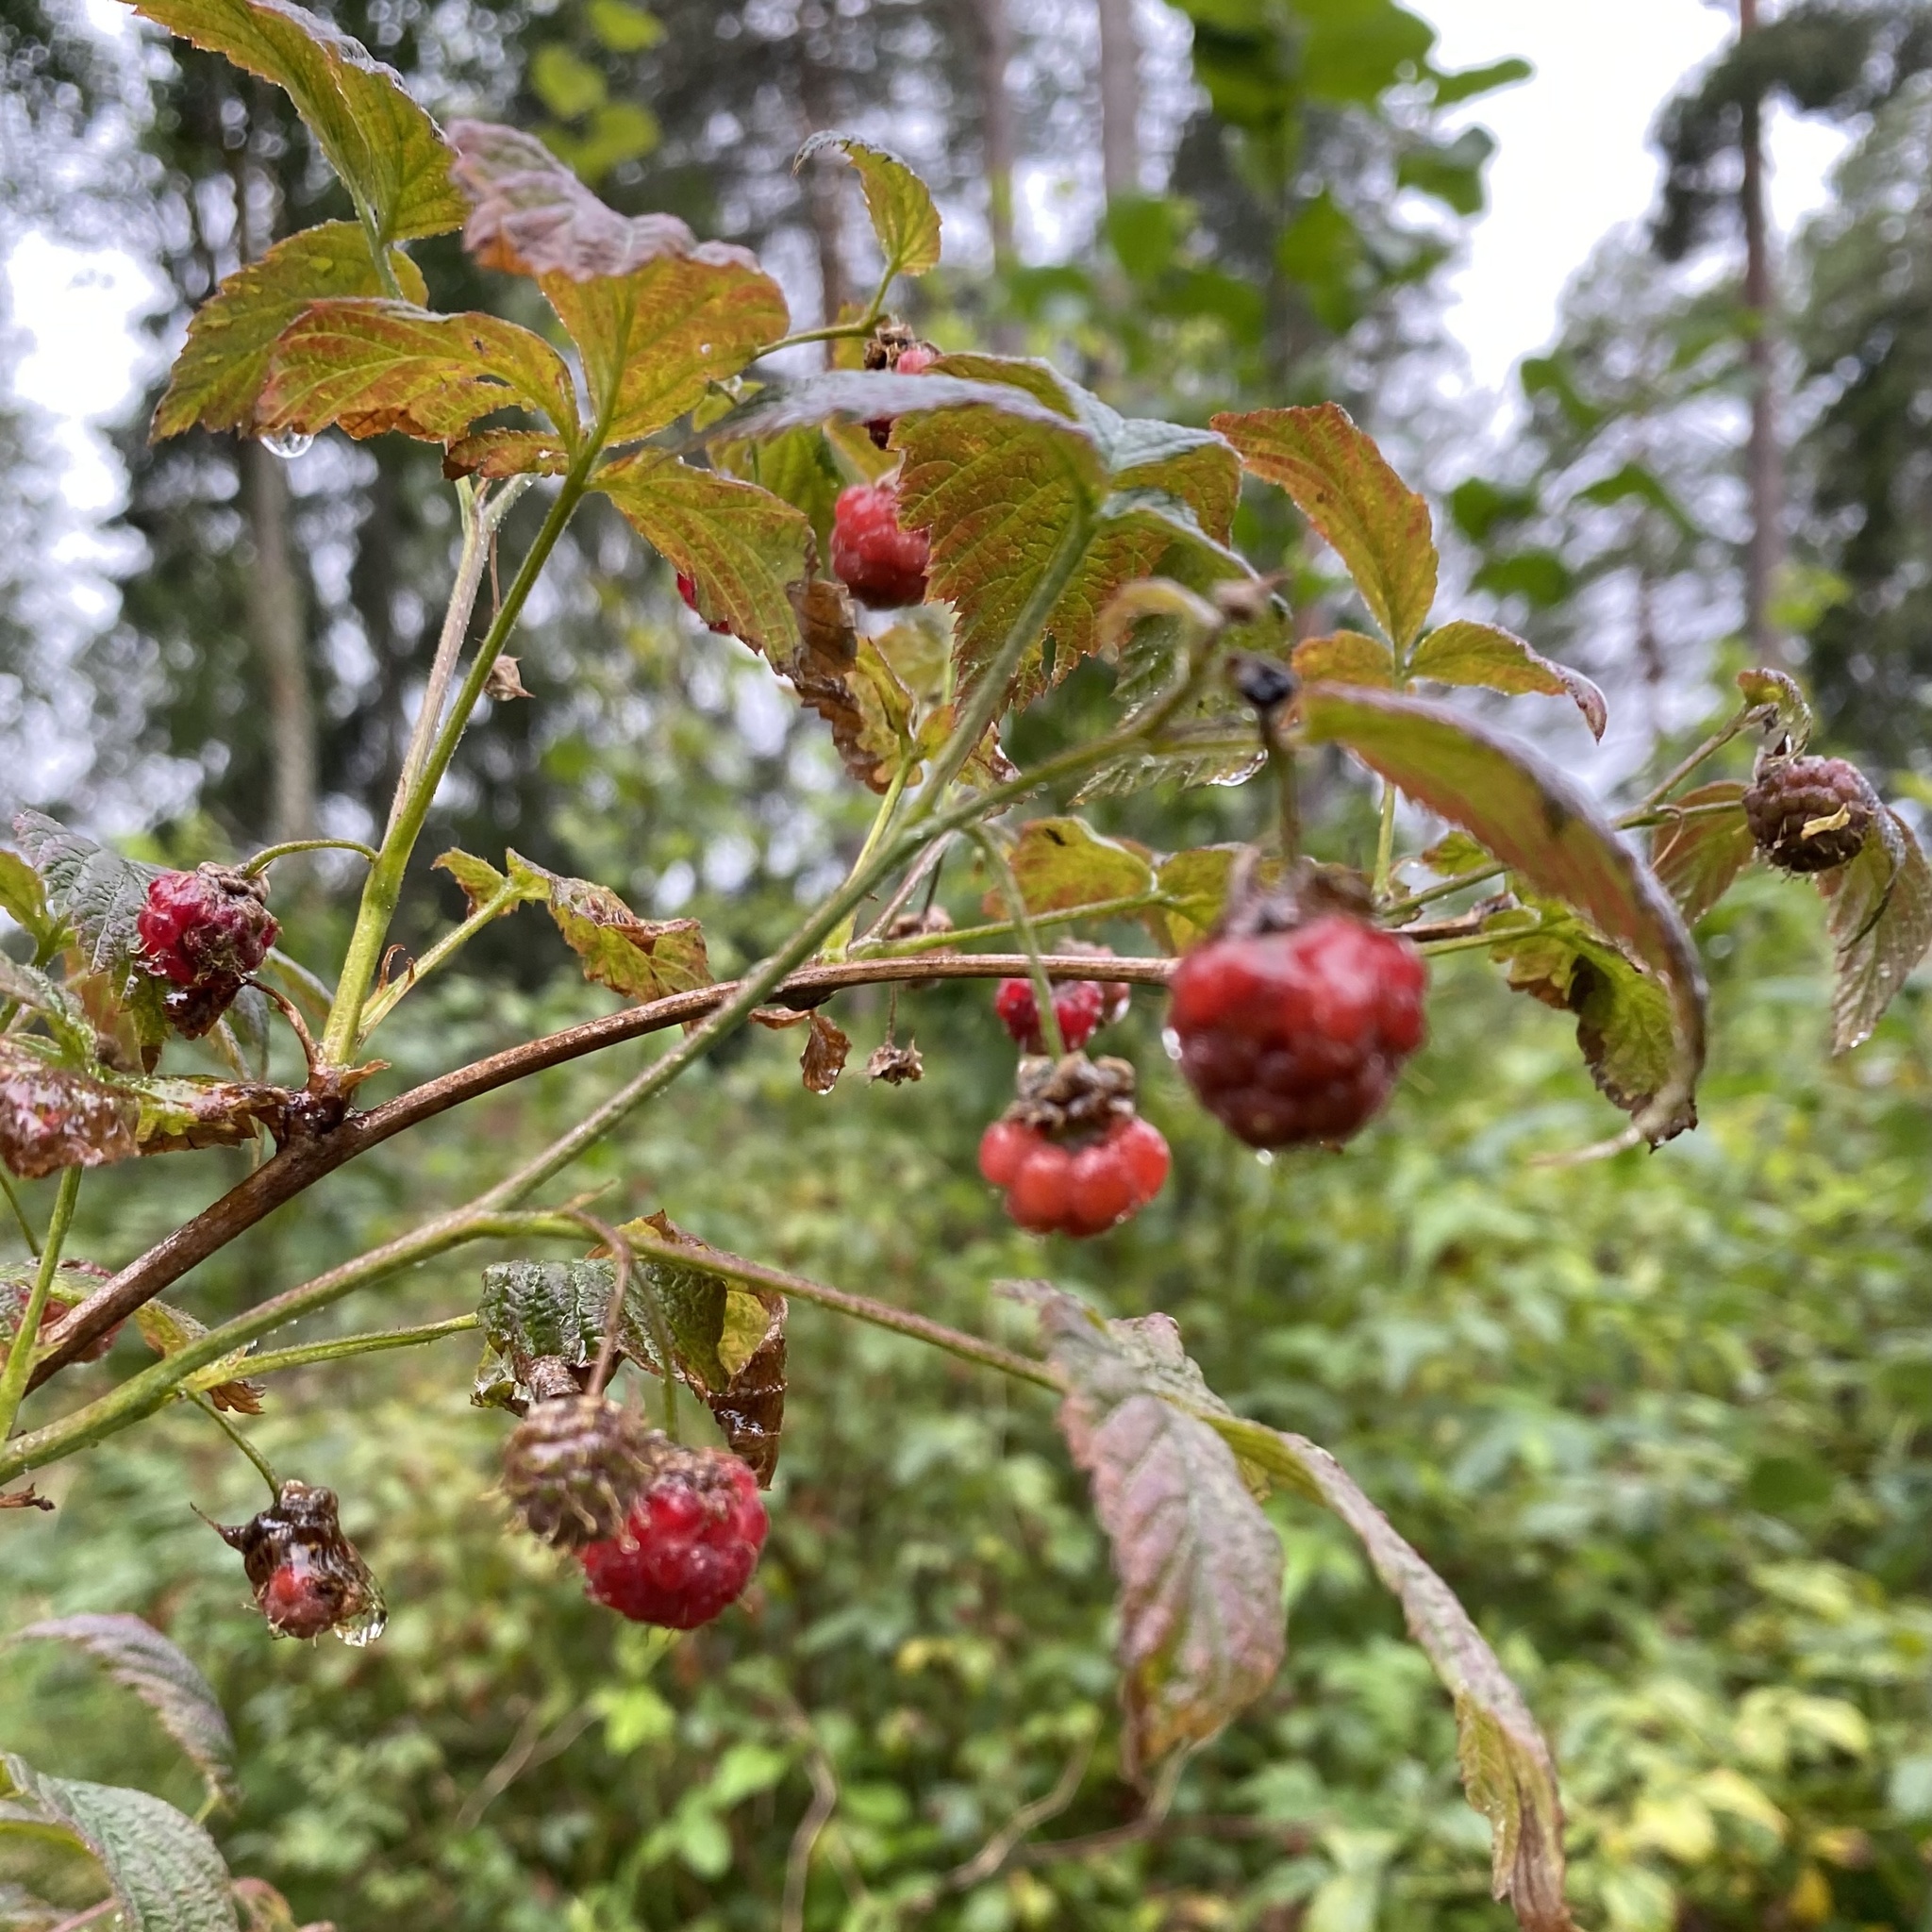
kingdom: Plantae
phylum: Tracheophyta
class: Magnoliopsida
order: Rosales
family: Rosaceae
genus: Rubus
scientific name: Rubus idaeus
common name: Raspberry
